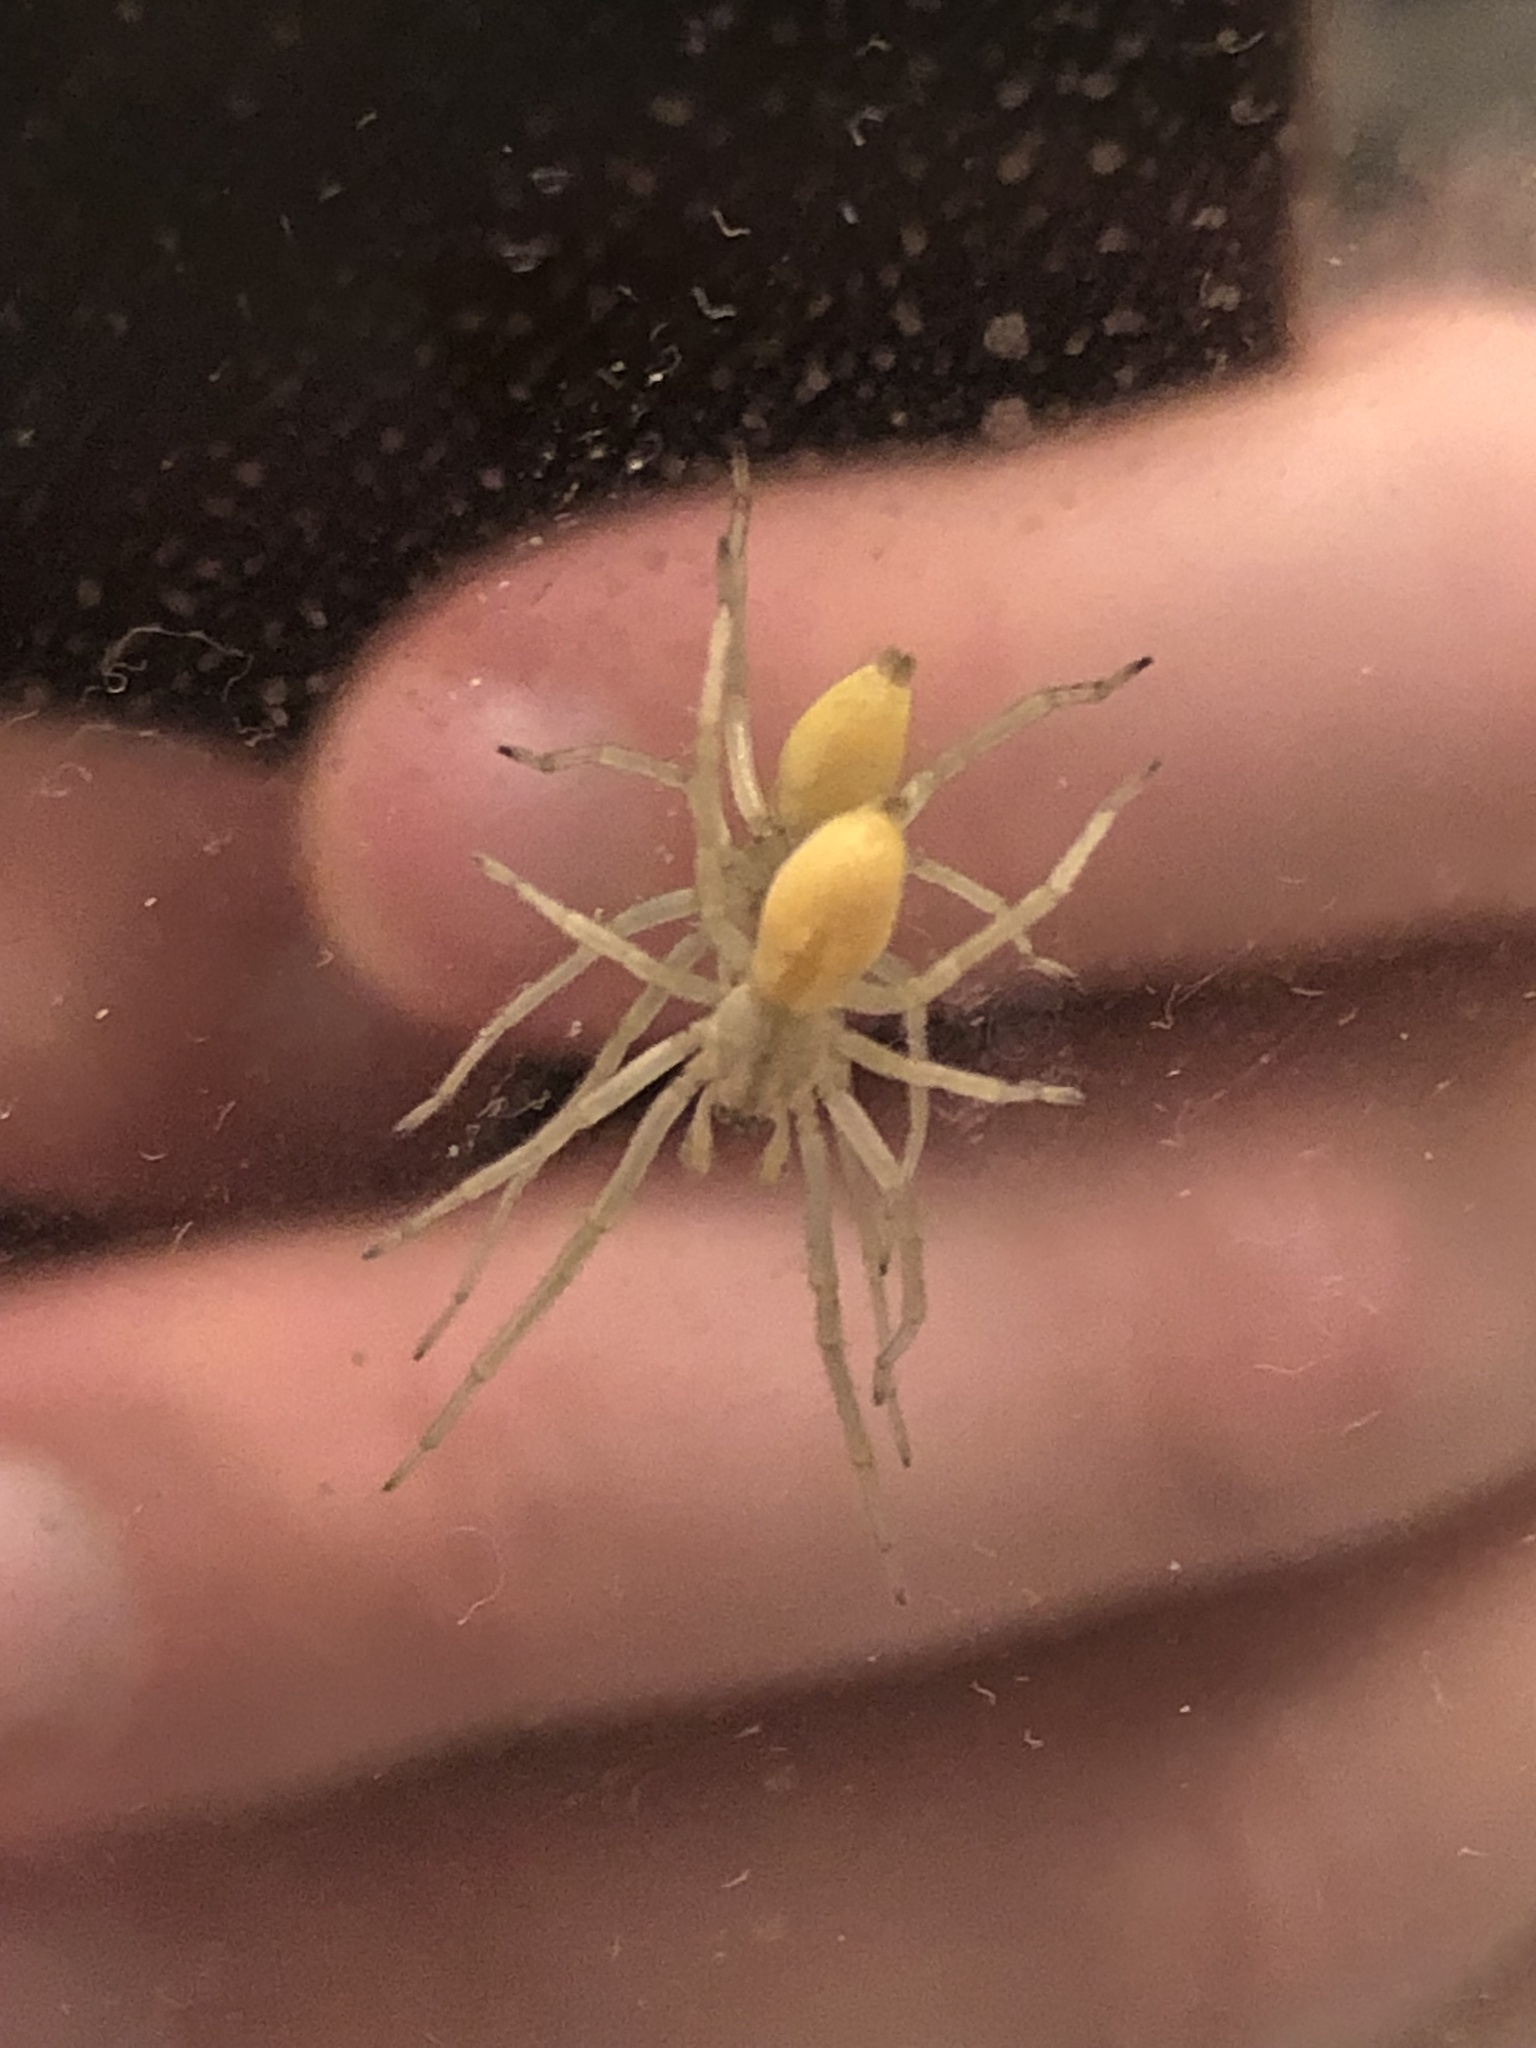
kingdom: Animalia
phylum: Arthropoda
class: Arachnida
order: Araneae
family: Cheiracanthiidae
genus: Cheiracanthium
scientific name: Cheiracanthium mildei
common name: Northern yellow sac spider
